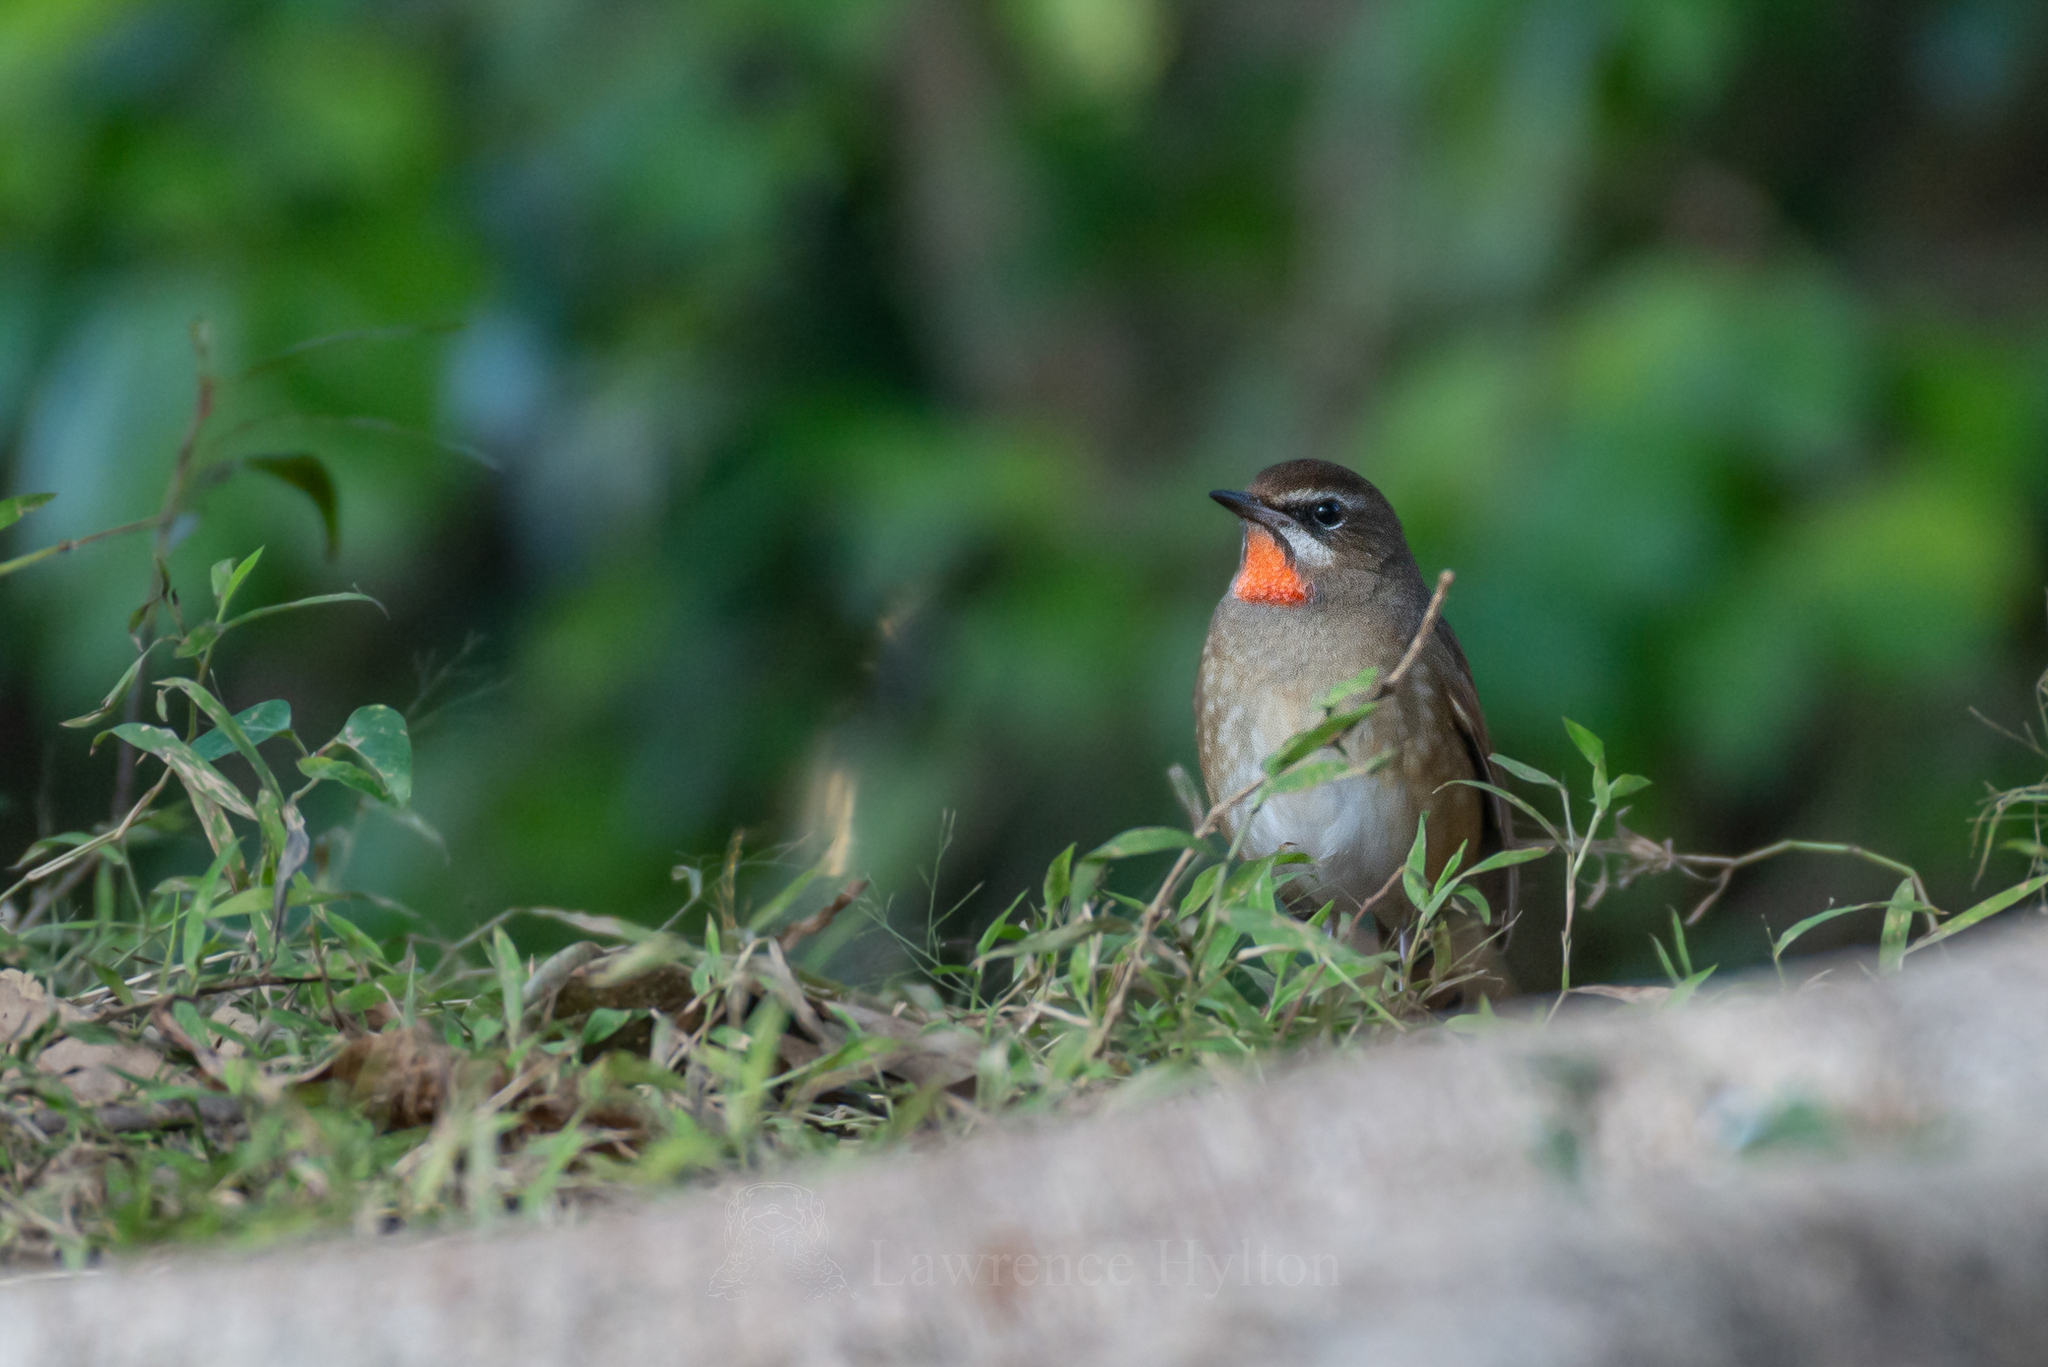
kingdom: Animalia
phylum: Chordata
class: Aves
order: Passeriformes
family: Muscicapidae
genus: Luscinia
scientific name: Luscinia calliope
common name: Siberian rubythroat
